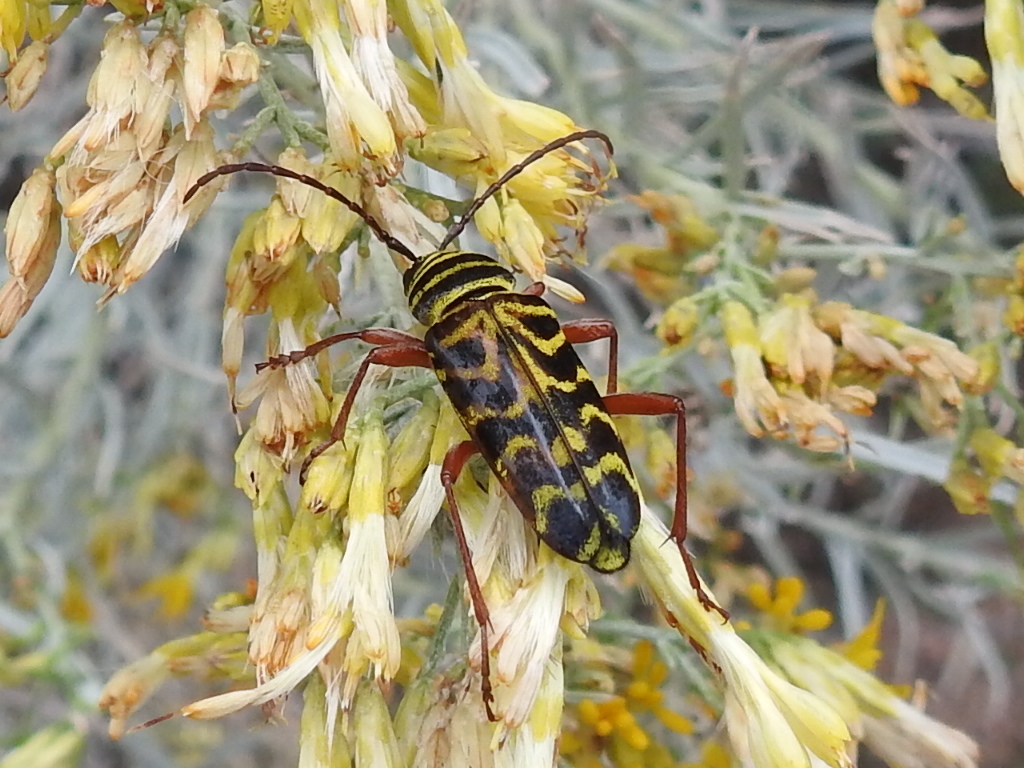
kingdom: Animalia
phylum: Arthropoda
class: Insecta
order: Coleoptera
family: Cerambycidae
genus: Megacyllene
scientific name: Megacyllene robiniae
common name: Locust borer
